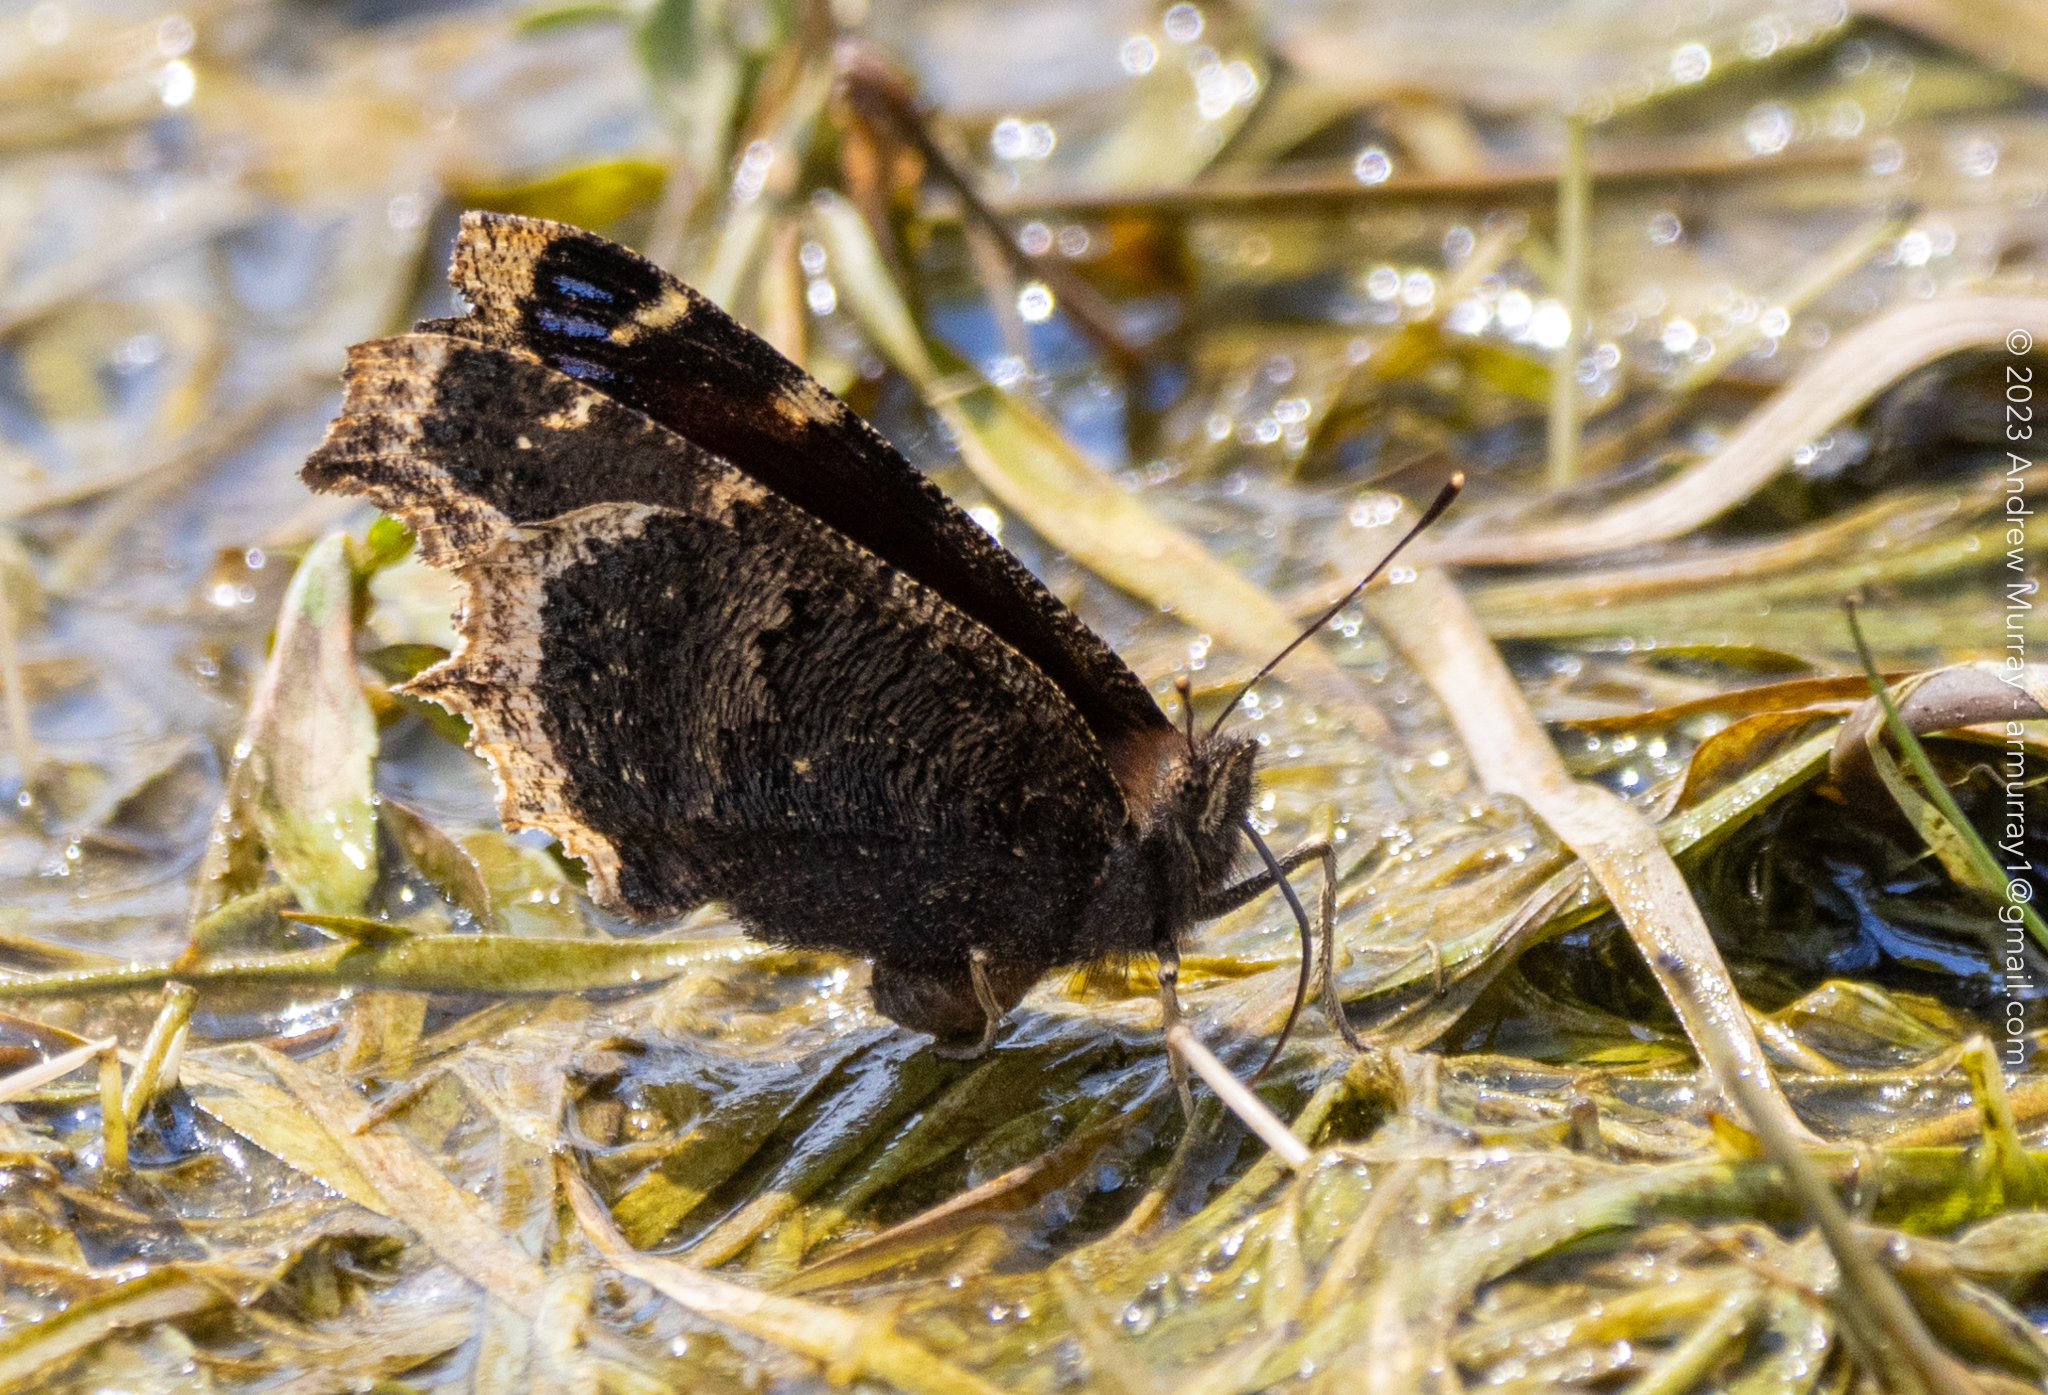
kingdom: Animalia
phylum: Arthropoda
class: Insecta
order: Lepidoptera
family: Nymphalidae
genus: Nymphalis
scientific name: Nymphalis antiopa
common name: Camberwell beauty
